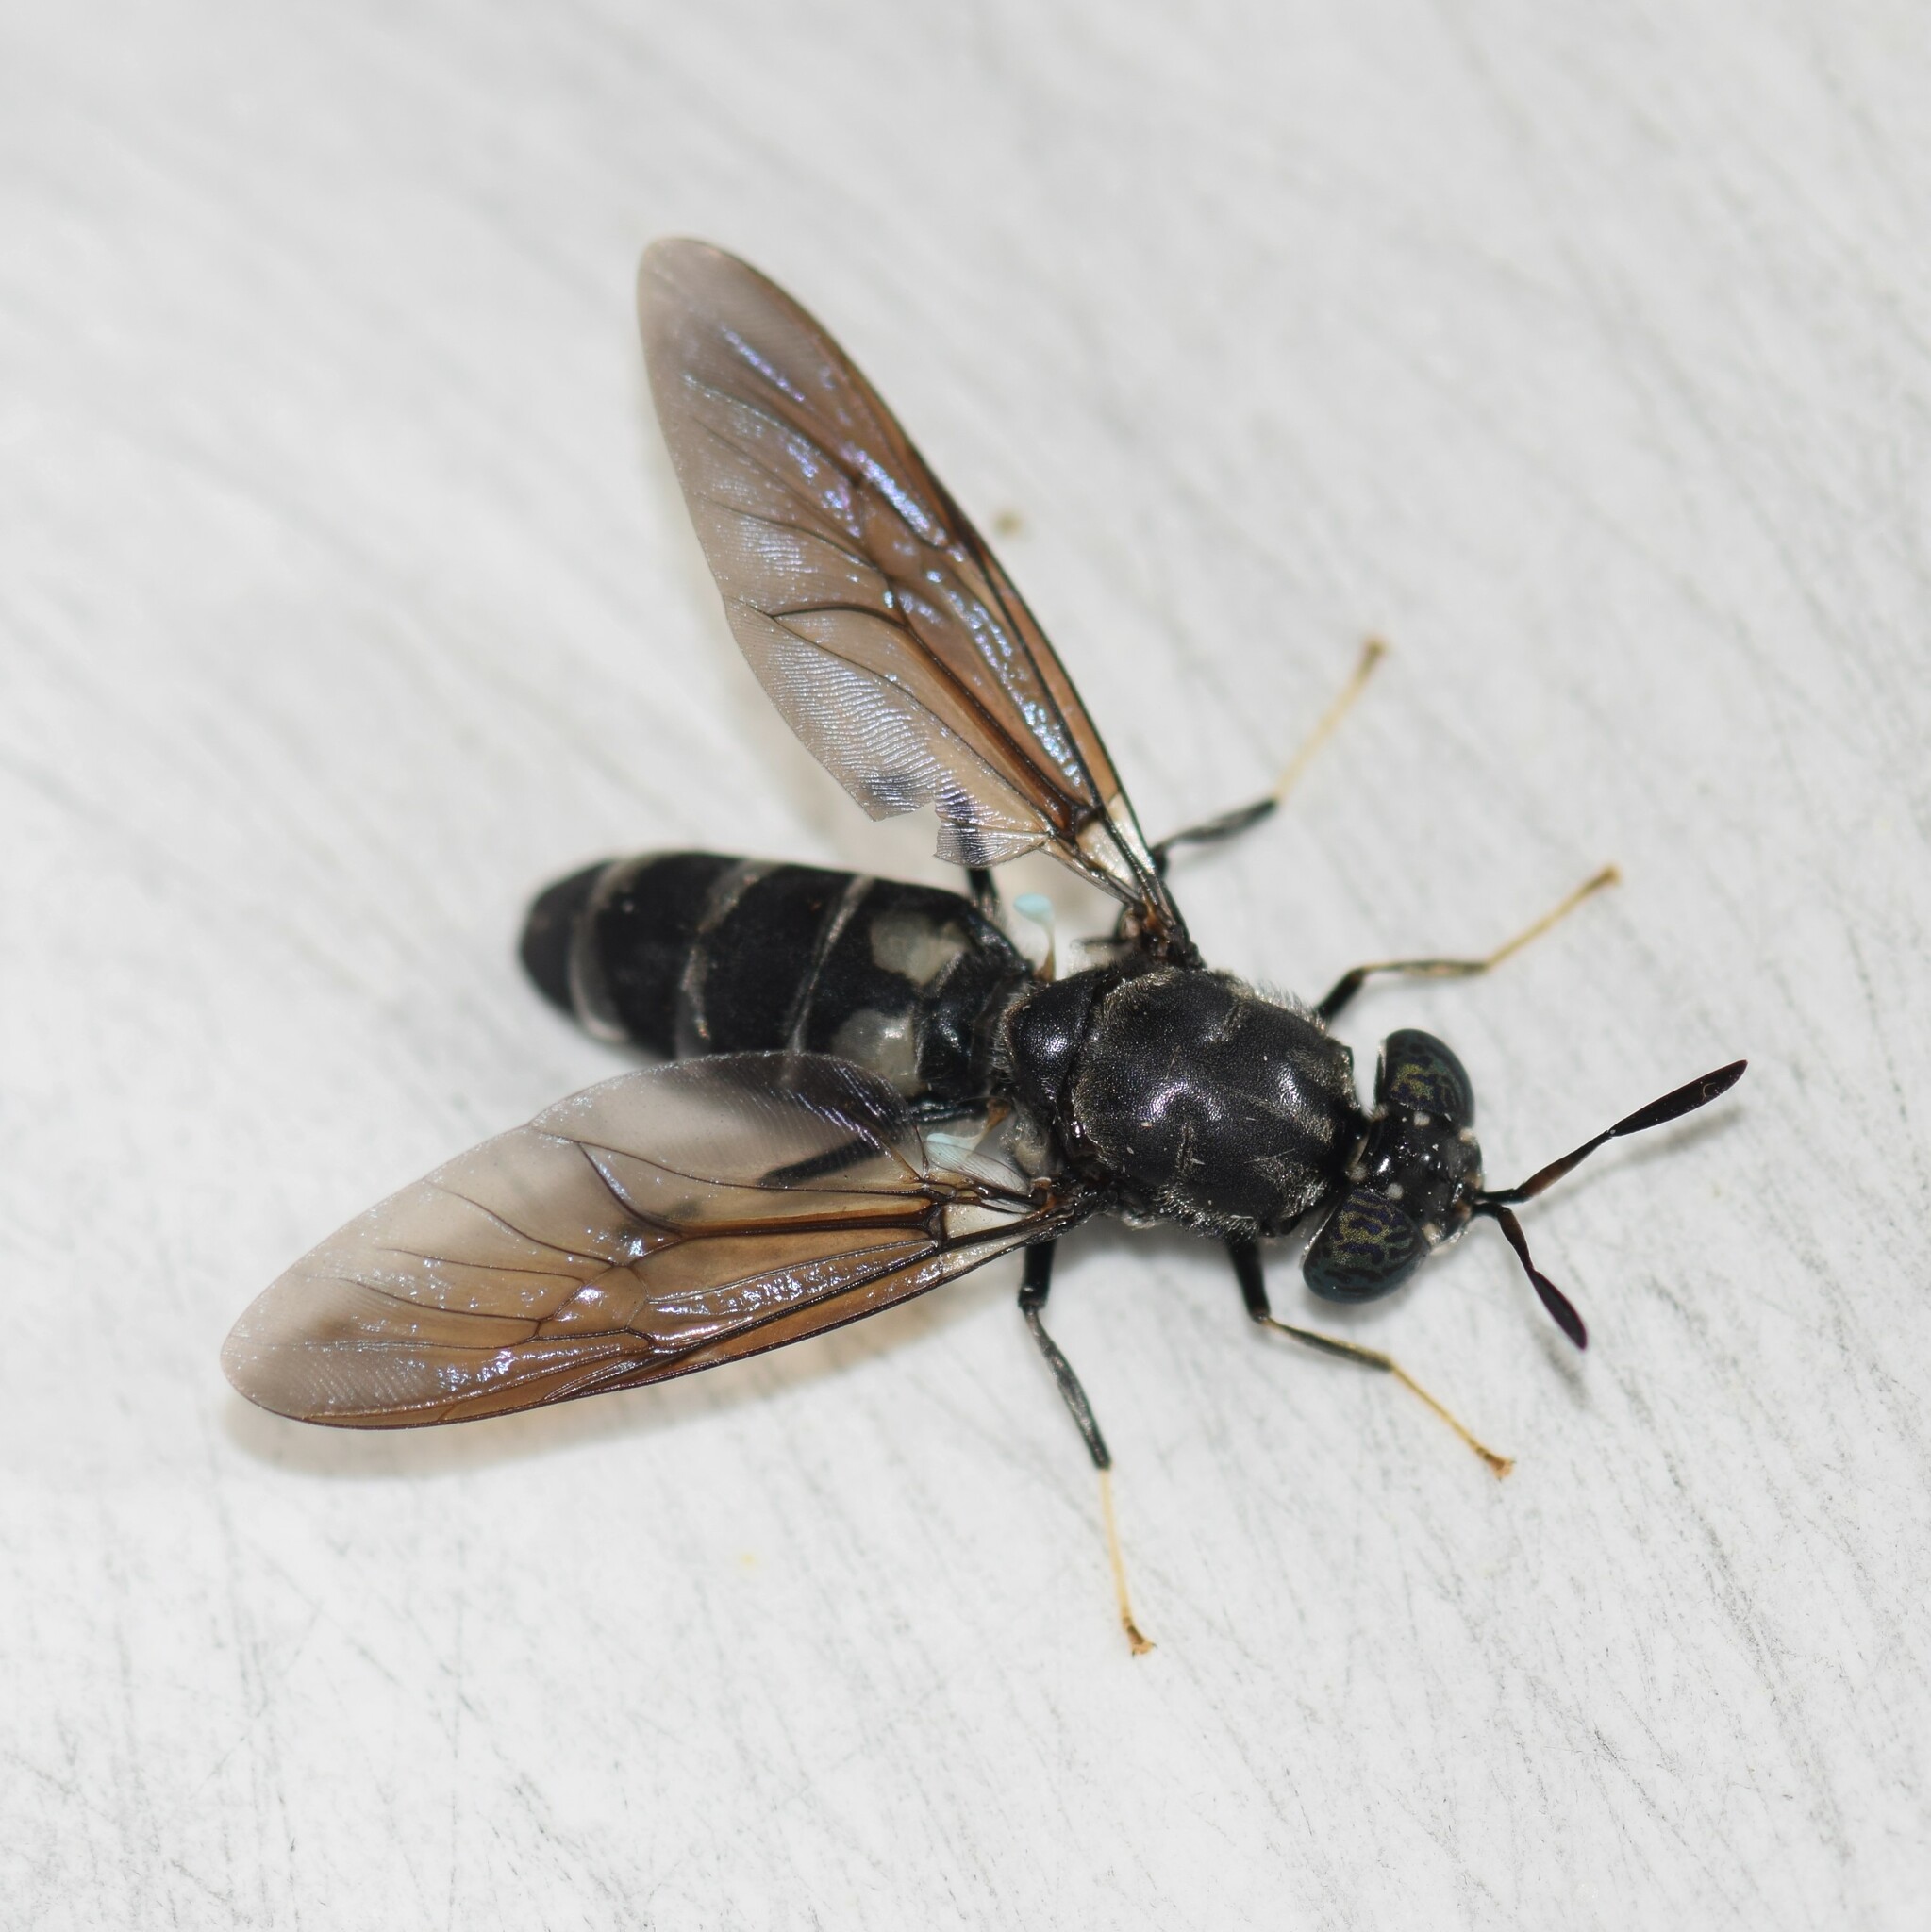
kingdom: Animalia
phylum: Arthropoda
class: Insecta
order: Diptera
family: Stratiomyidae
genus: Hermetia
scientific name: Hermetia illucens
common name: Black soldier fly
